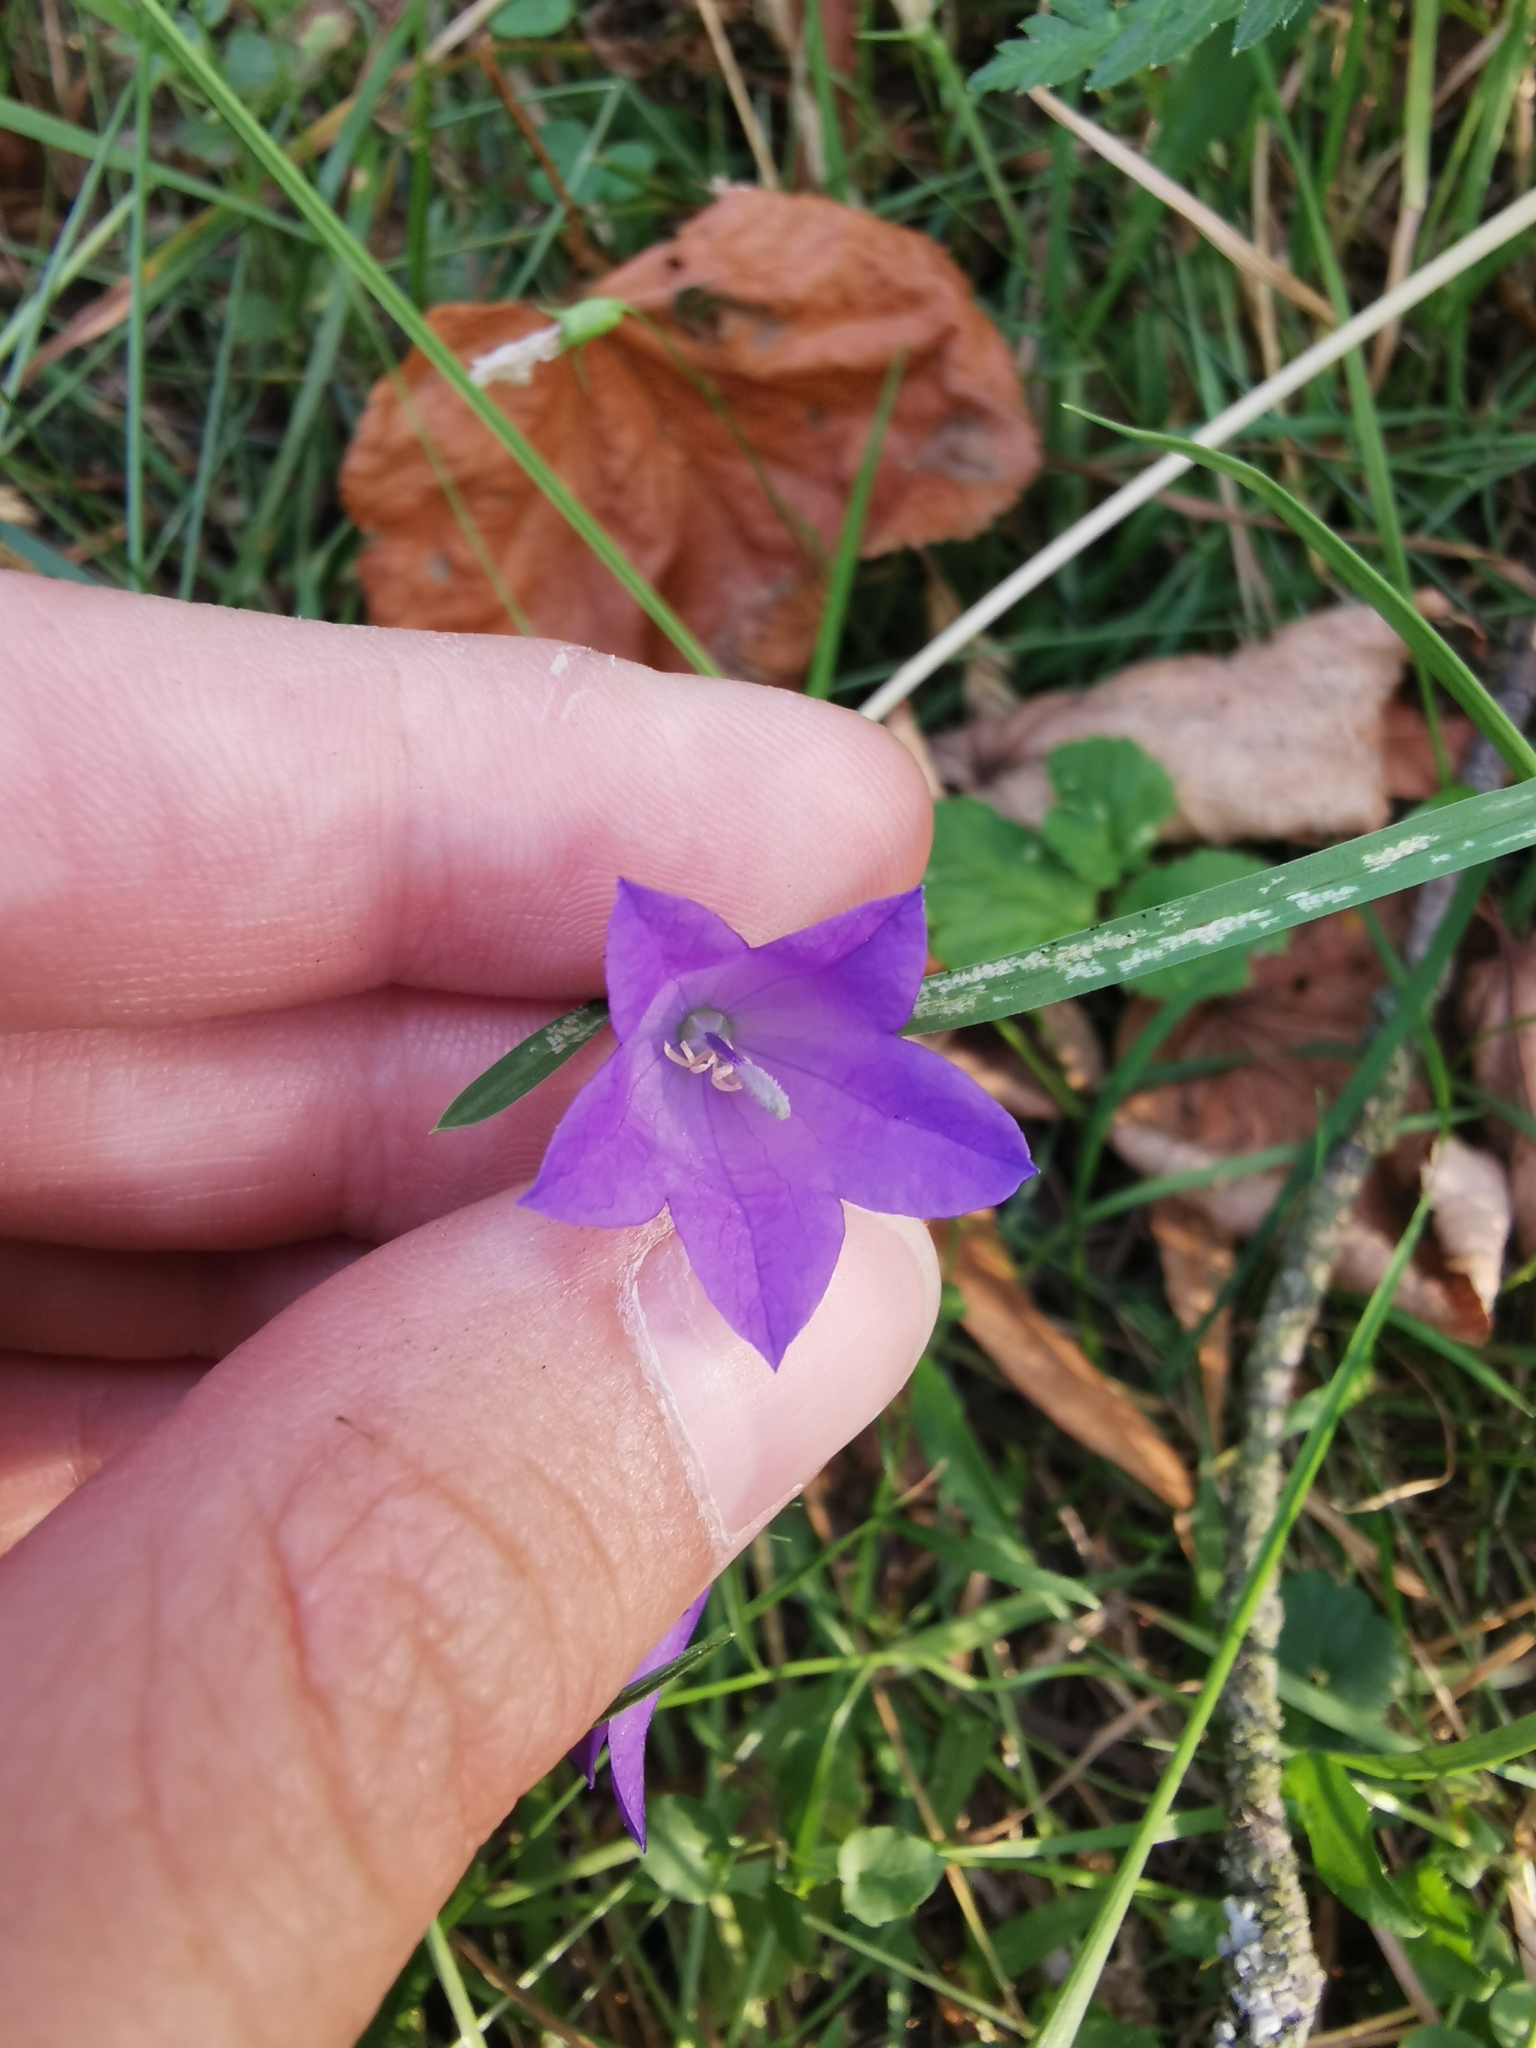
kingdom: Plantae
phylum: Tracheophyta
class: Magnoliopsida
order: Asterales
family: Campanulaceae
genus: Campanula
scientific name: Campanula rotundifolia
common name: Harebell
